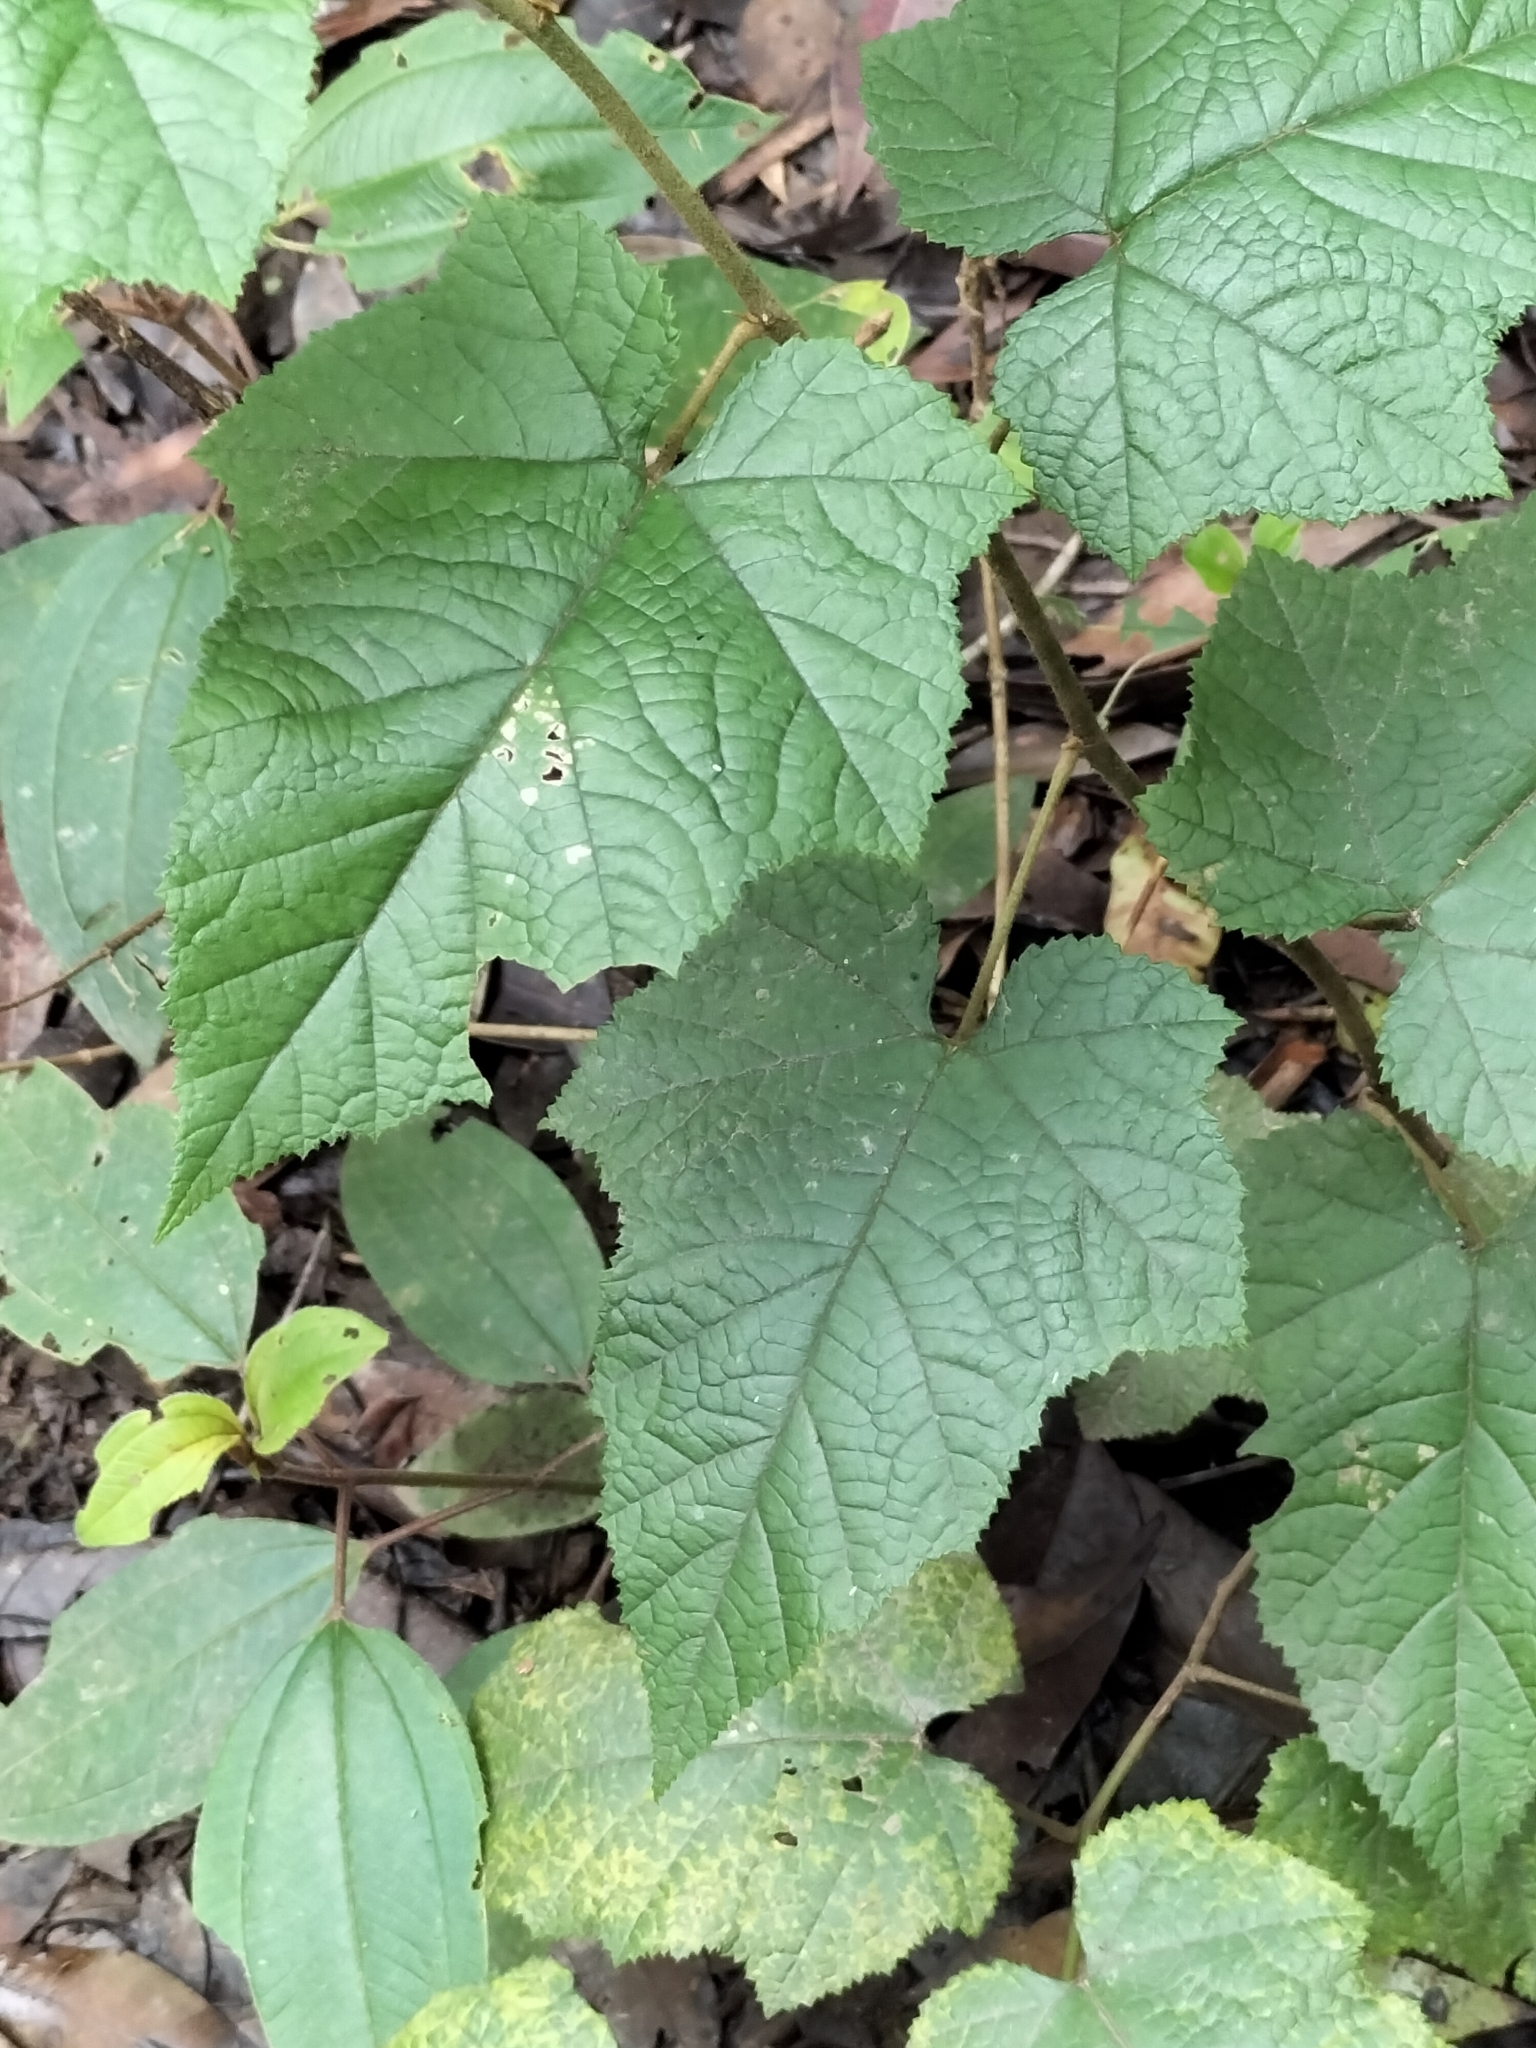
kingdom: Plantae
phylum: Tracheophyta
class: Magnoliopsida
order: Rosales
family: Rosaceae
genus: Rubus
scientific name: Rubus moluccanus
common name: Wild raspberry
